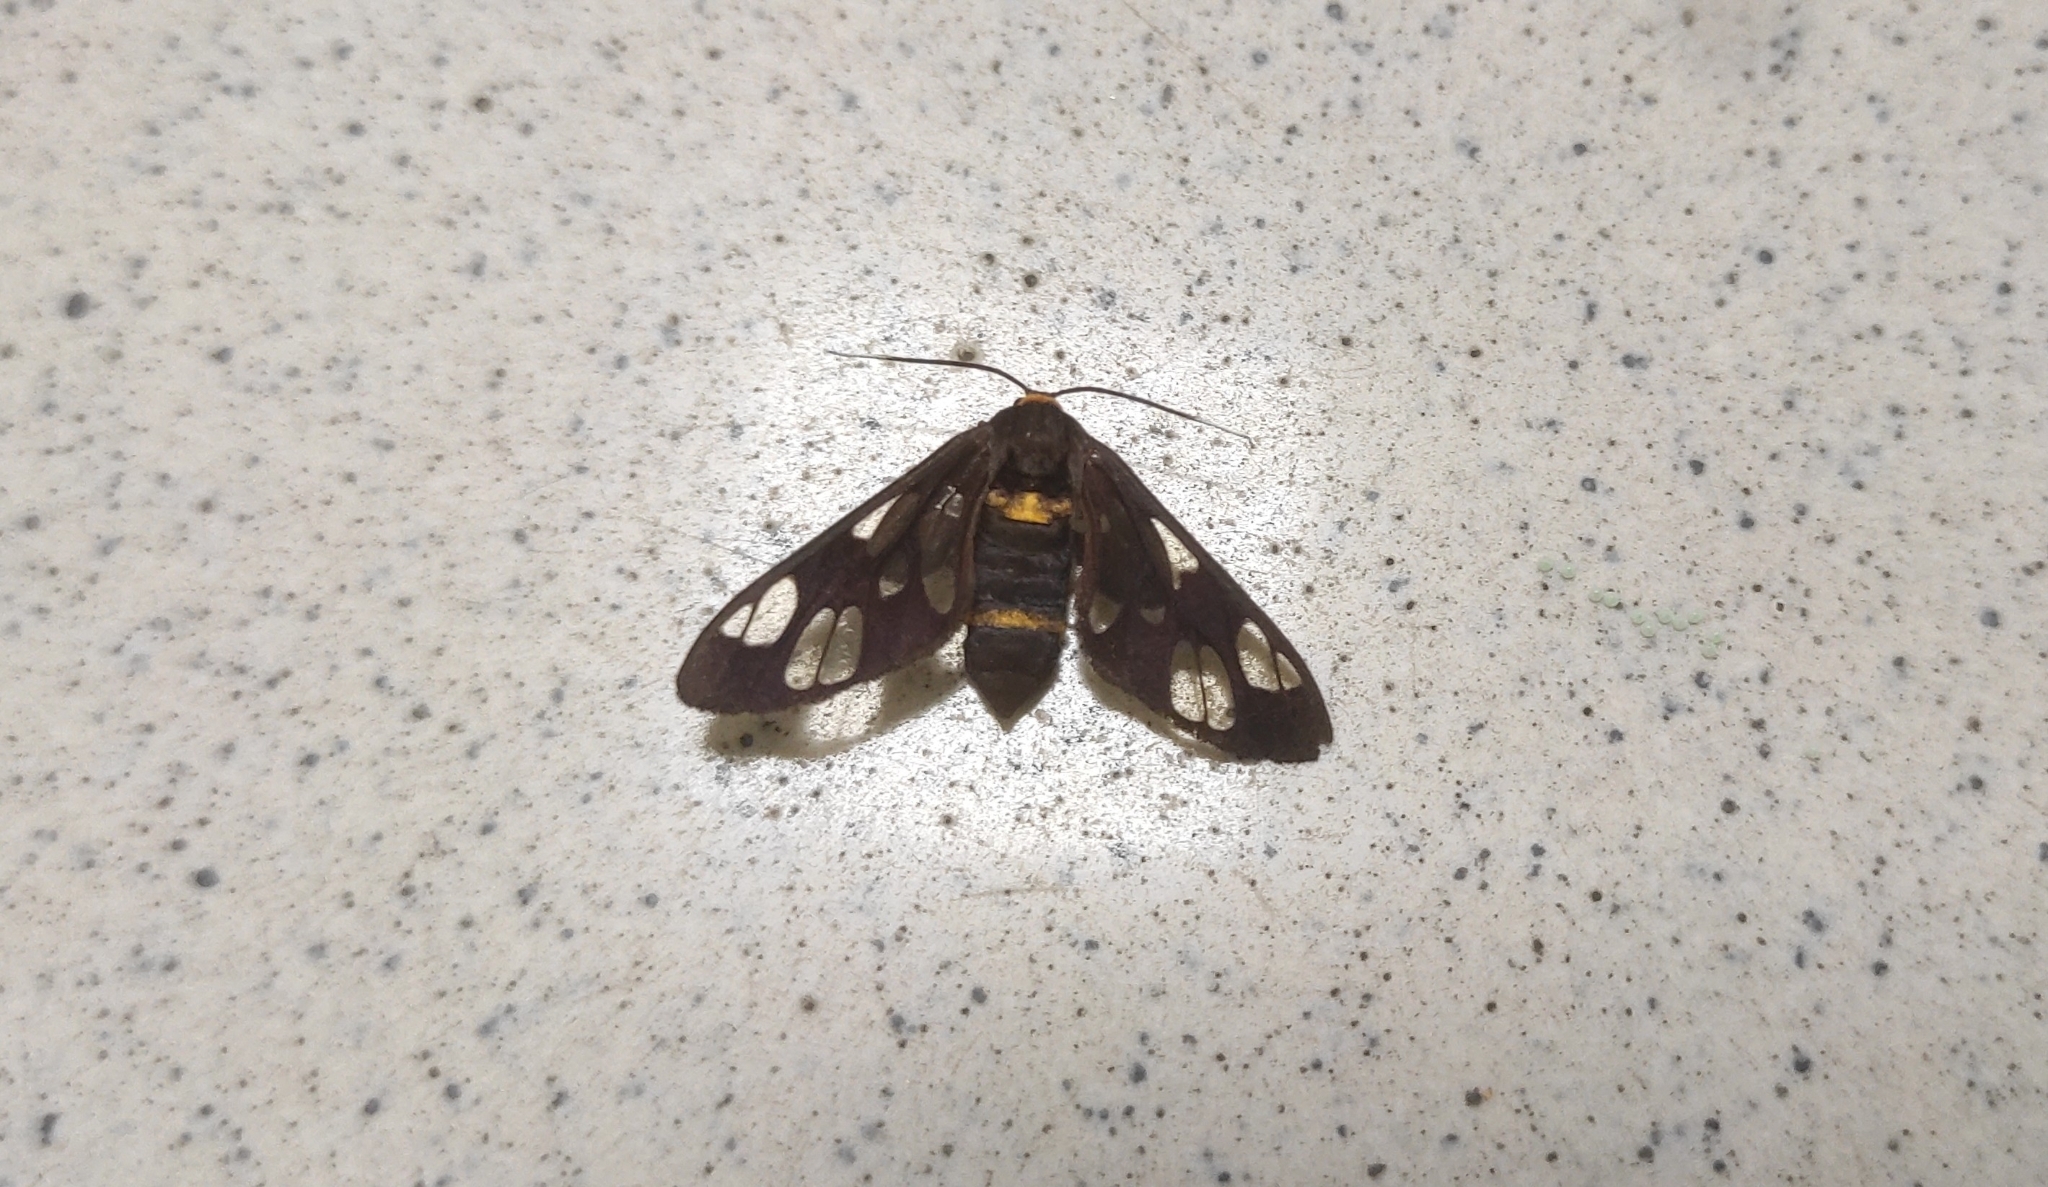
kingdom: Animalia
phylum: Arthropoda
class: Insecta
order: Lepidoptera
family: Erebidae
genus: Syntomoides
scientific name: Syntomoides imaon
